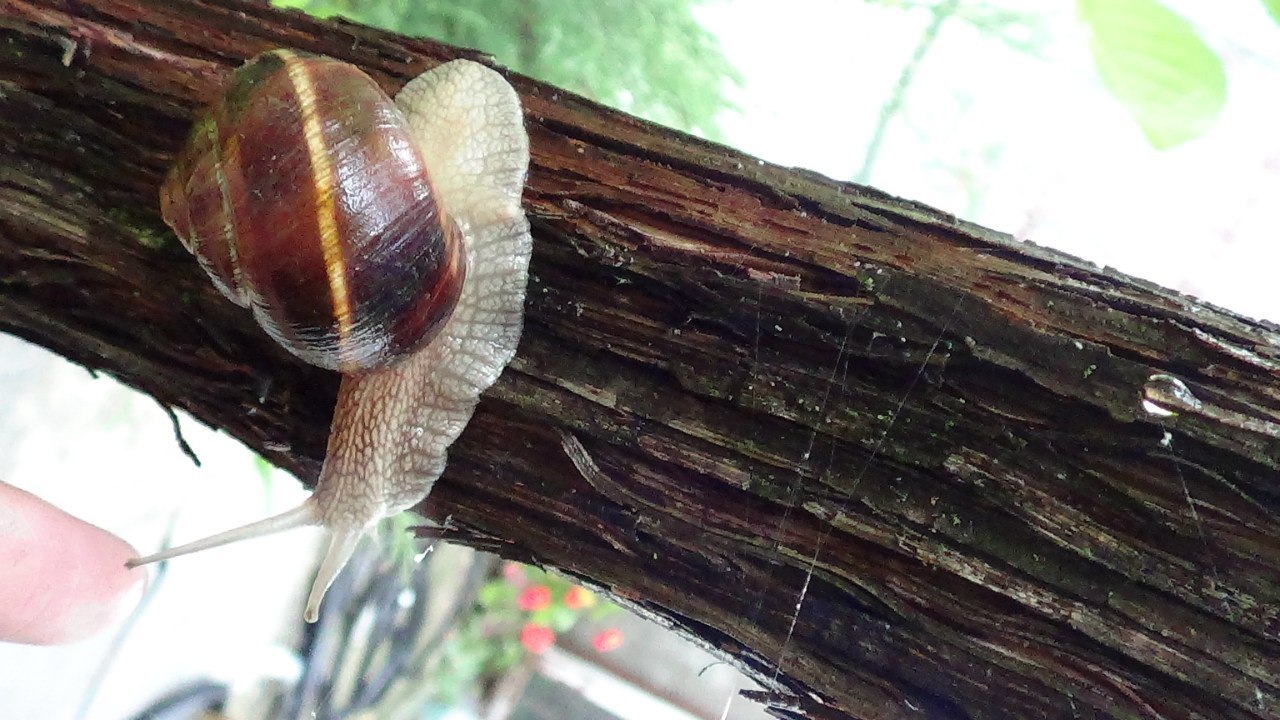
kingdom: Animalia
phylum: Mollusca
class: Gastropoda
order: Stylommatophora
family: Helicidae
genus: Helix
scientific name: Helix lucorum
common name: Turkish snail
